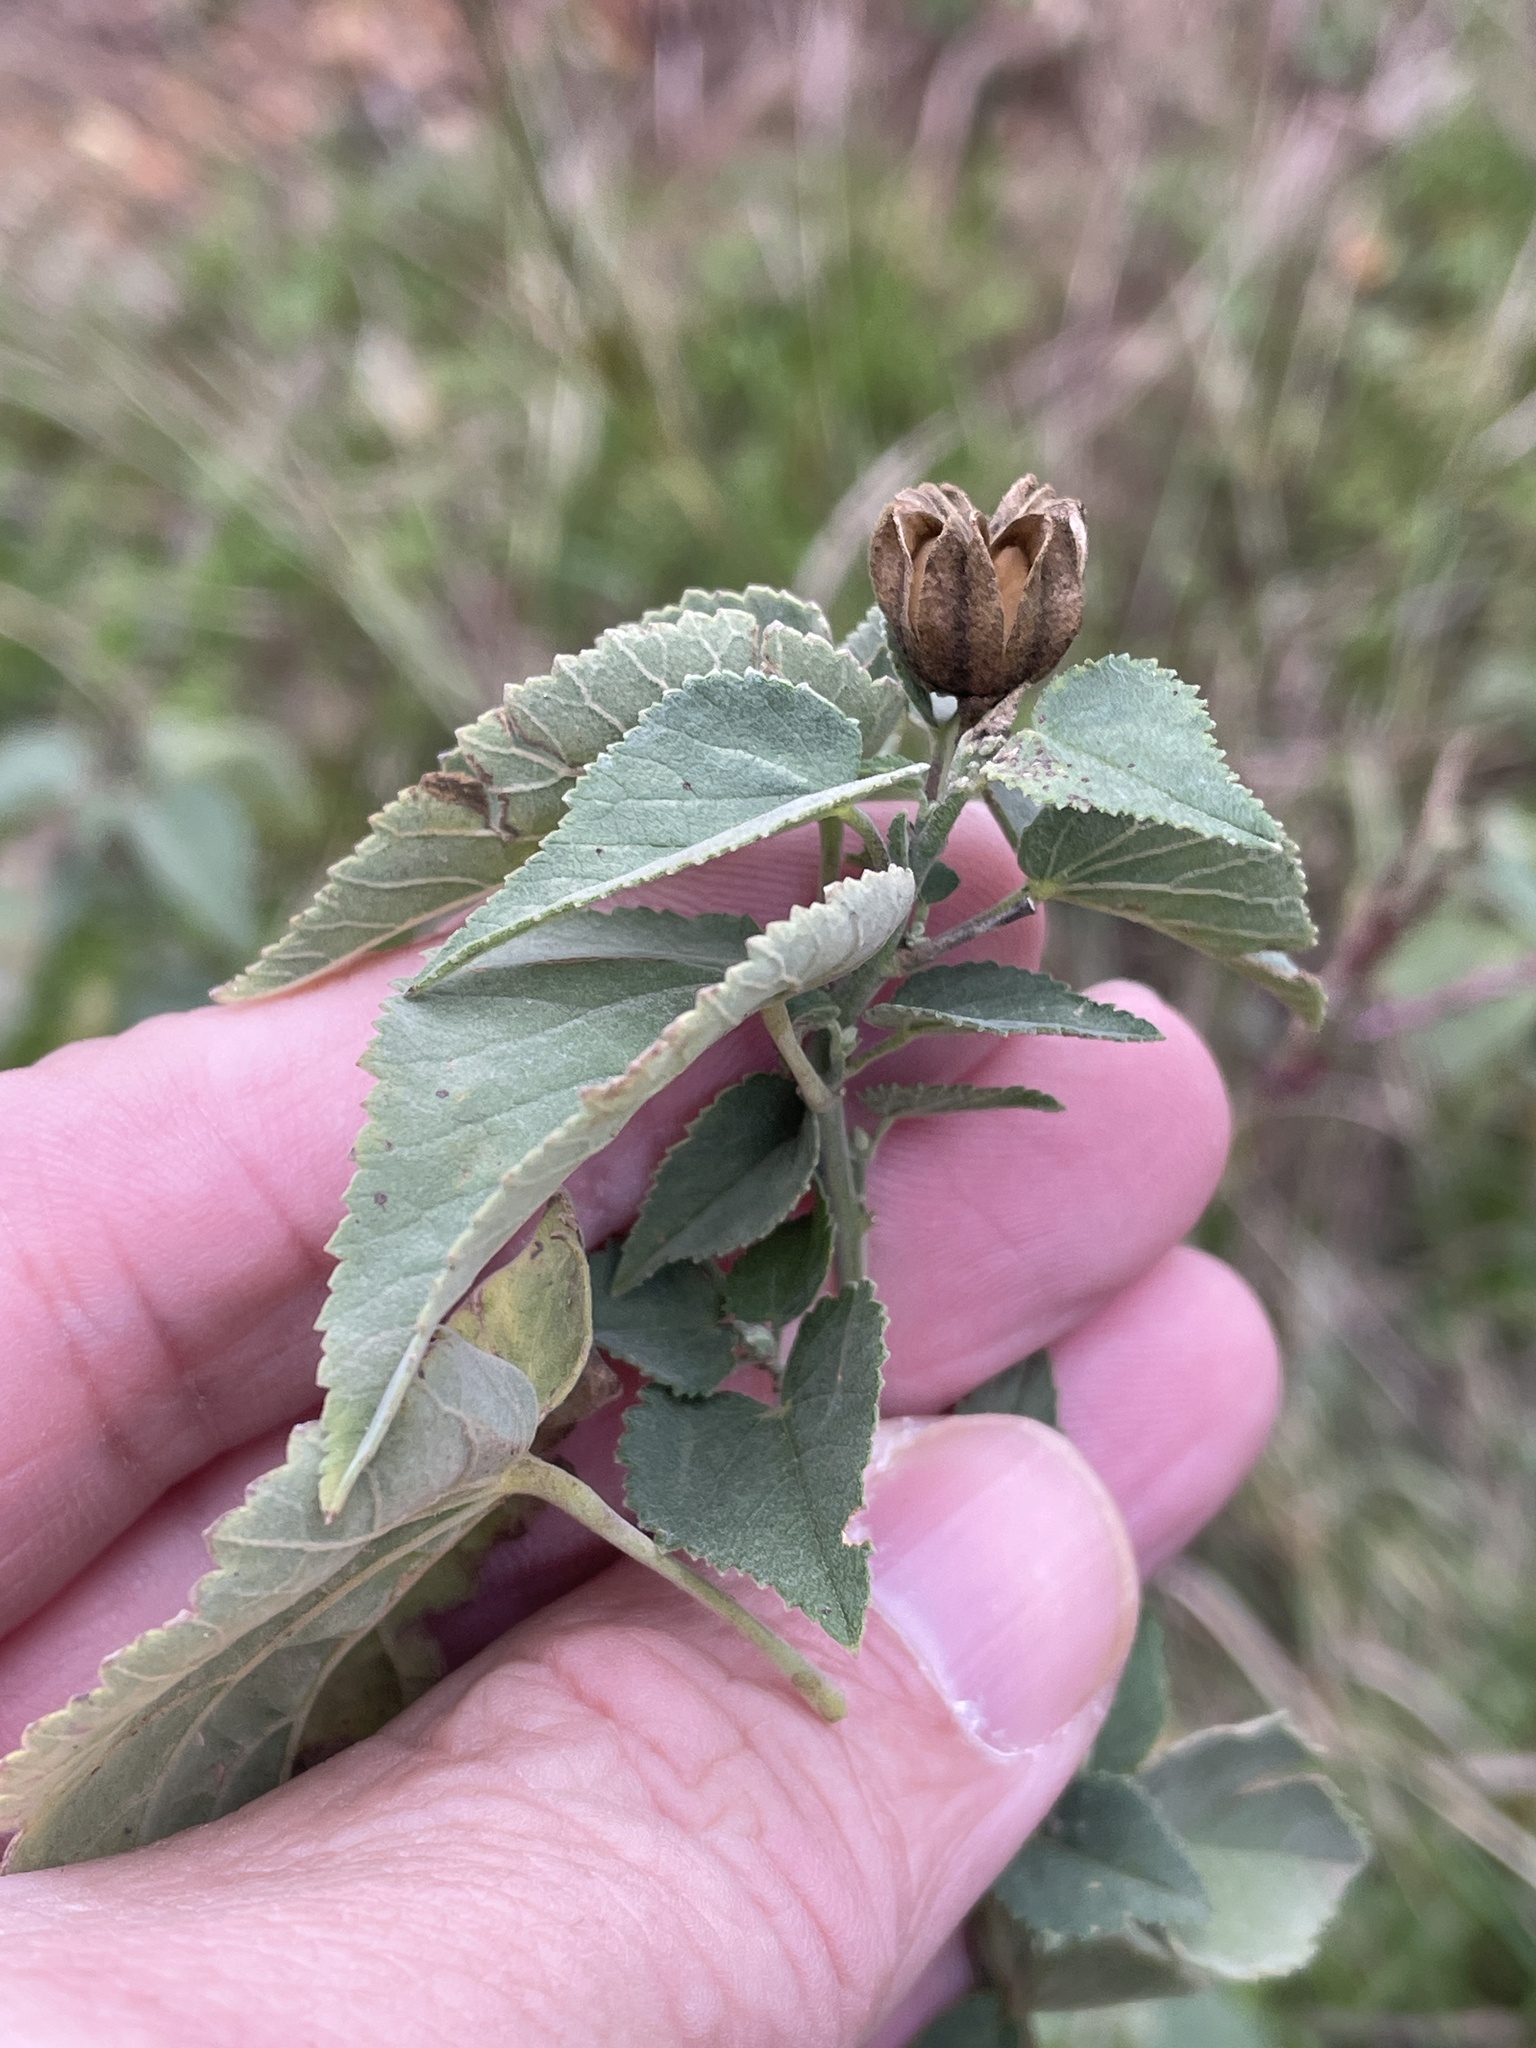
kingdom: Plantae
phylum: Tracheophyta
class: Magnoliopsida
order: Malvales
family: Malvaceae
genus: Abutilon
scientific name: Abutilon fruticosum
